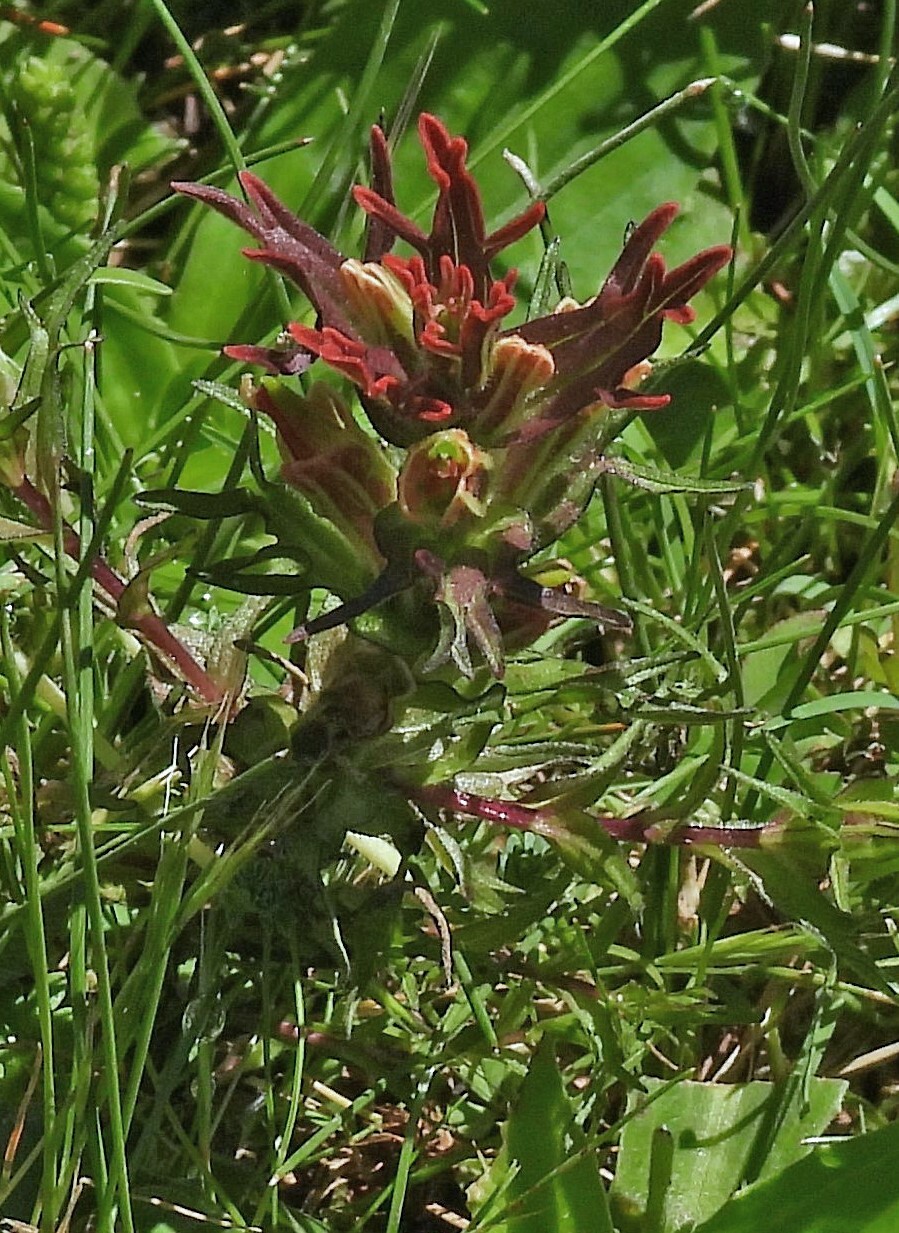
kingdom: Plantae
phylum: Tracheophyta
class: Magnoliopsida
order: Lamiales
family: Orobanchaceae
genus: Castilleja
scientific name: Castilleja pumila
